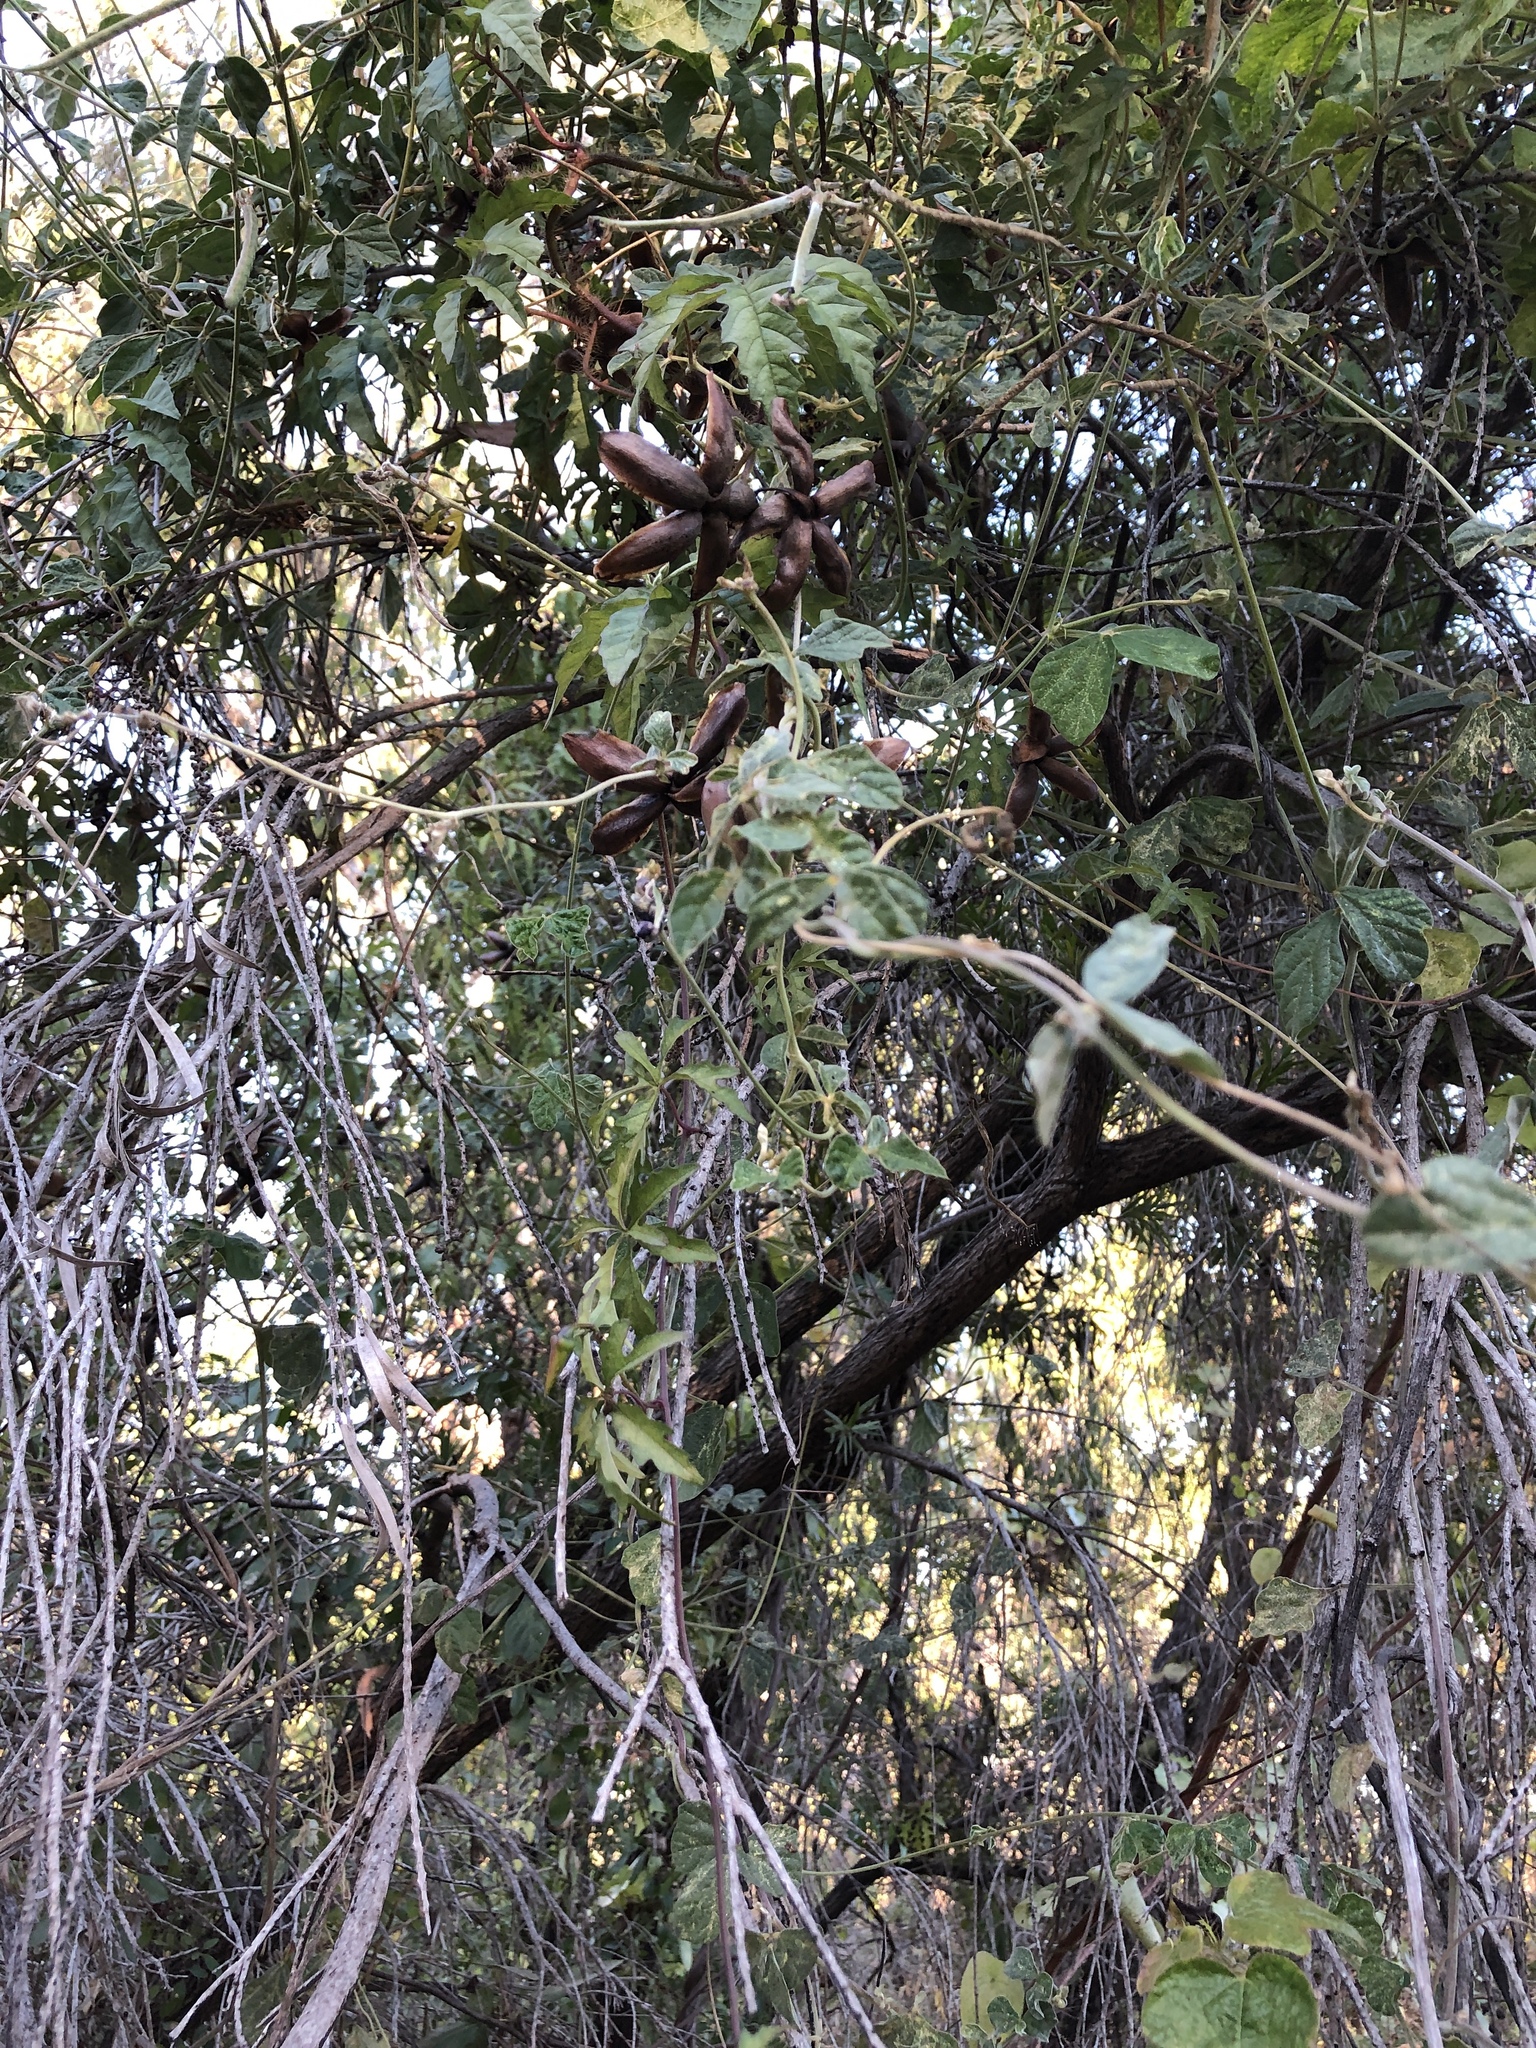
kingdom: Plantae
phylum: Tracheophyta
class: Magnoliopsida
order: Solanales
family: Convolvulaceae
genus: Distimake
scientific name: Distimake dissectus
